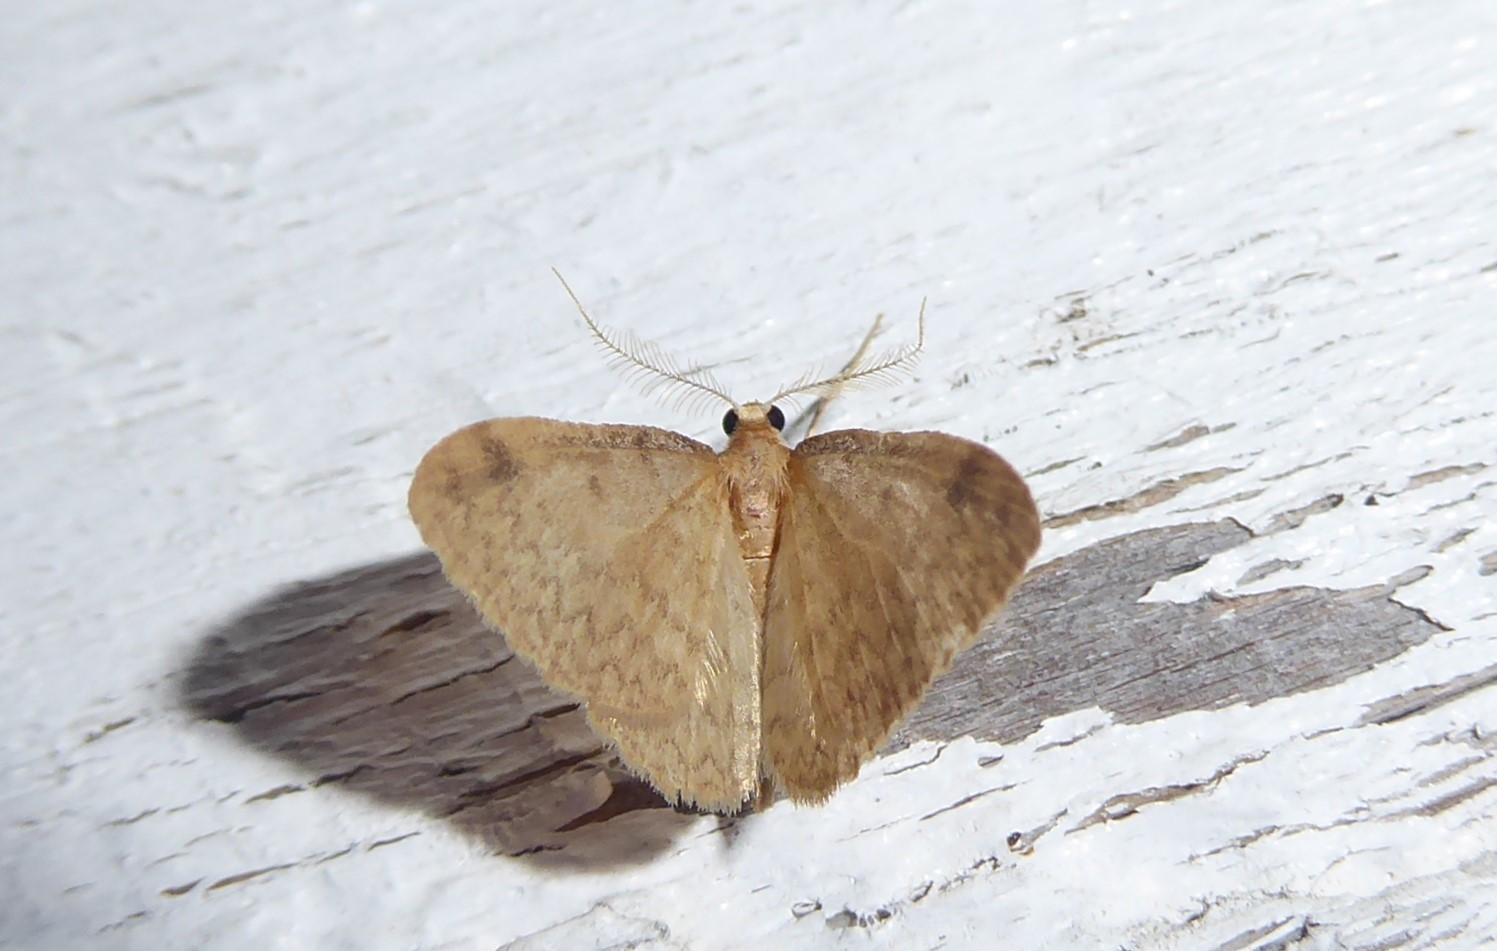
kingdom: Animalia
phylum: Arthropoda
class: Insecta
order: Lepidoptera
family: Geometridae
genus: Epiphryne
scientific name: Epiphryne undosata
